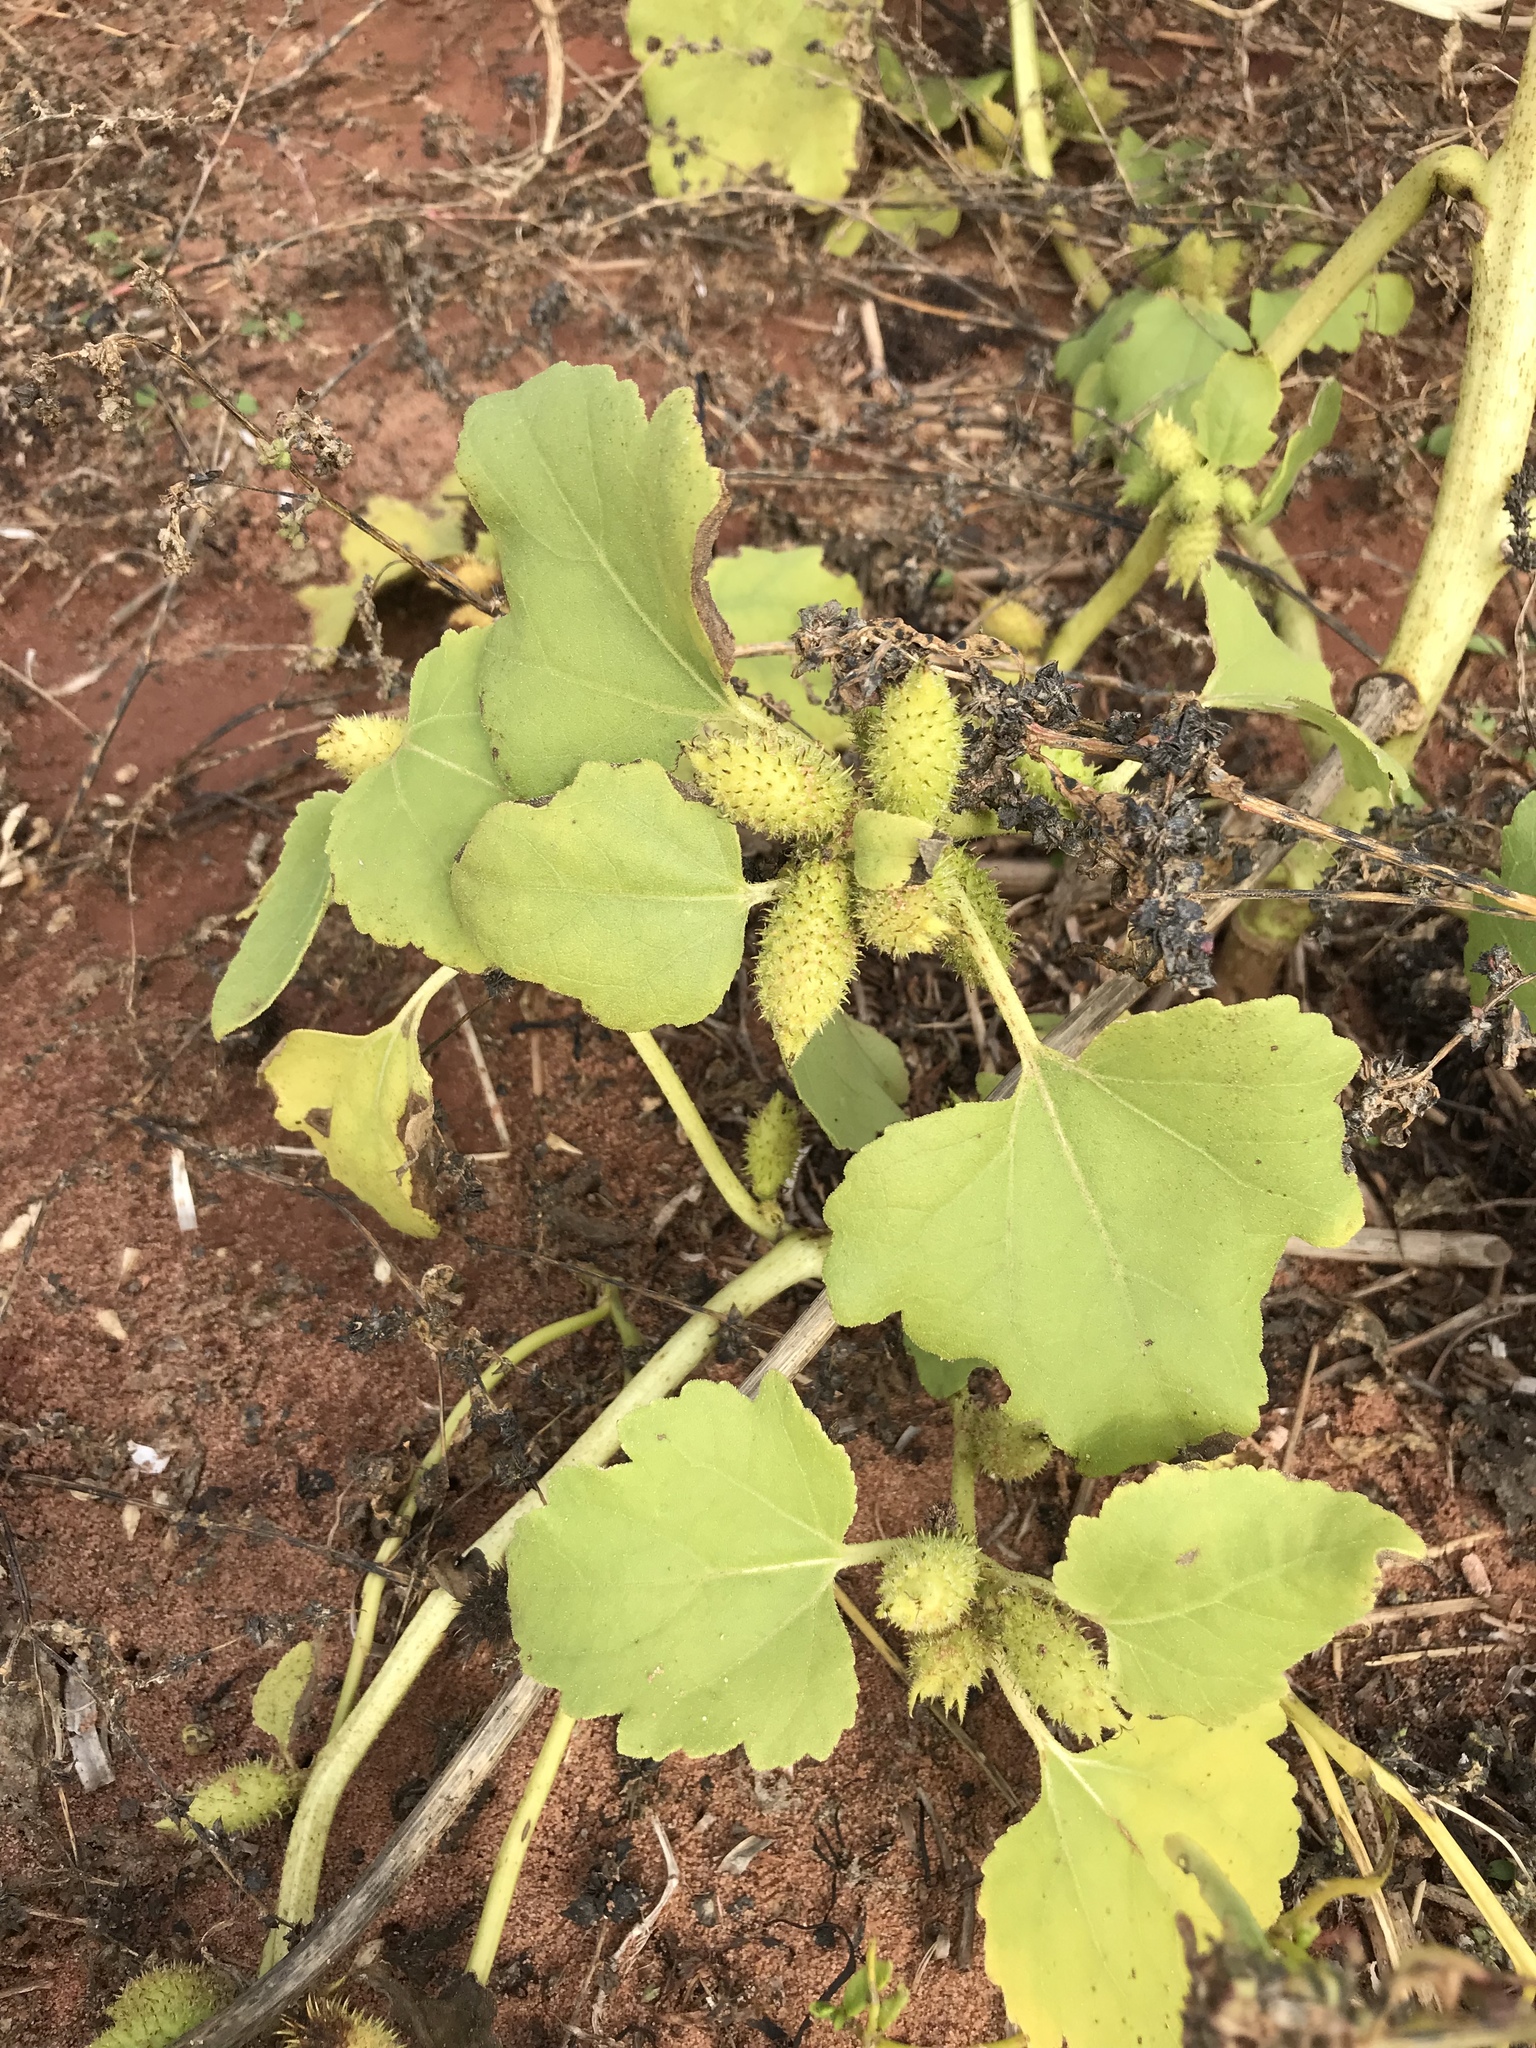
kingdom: Plantae
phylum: Tracheophyta
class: Magnoliopsida
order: Asterales
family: Asteraceae
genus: Xanthium
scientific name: Xanthium strumarium
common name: Rough cocklebur
